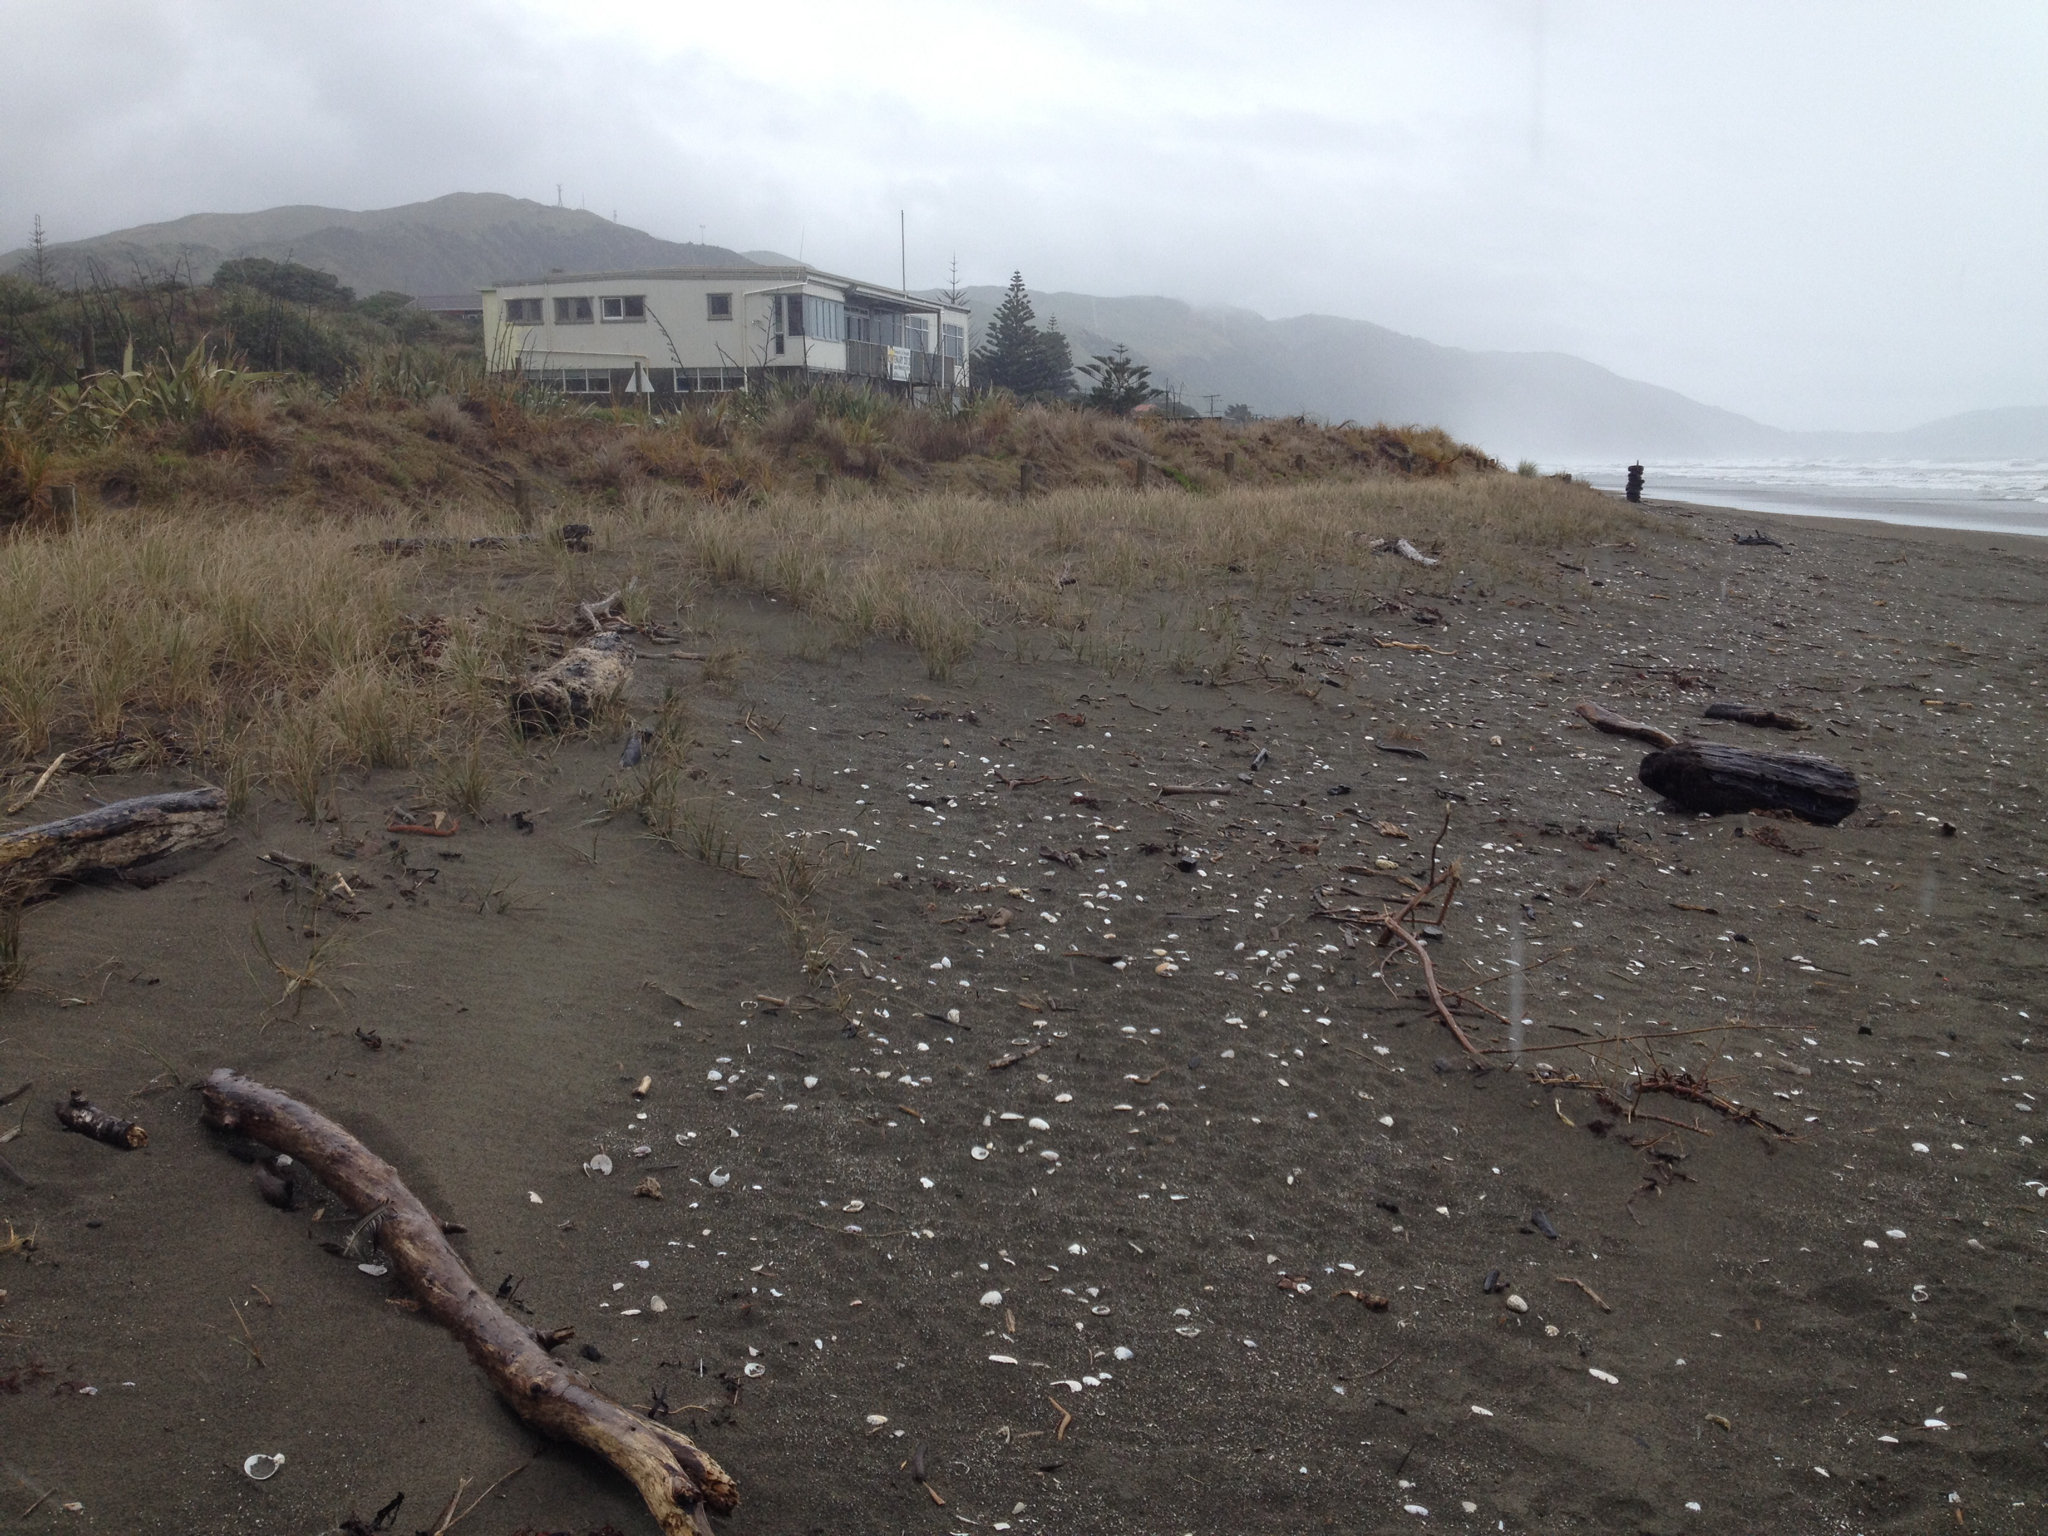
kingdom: Plantae
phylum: Tracheophyta
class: Liliopsida
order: Poales
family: Poaceae
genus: Spinifex
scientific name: Spinifex sericeus
